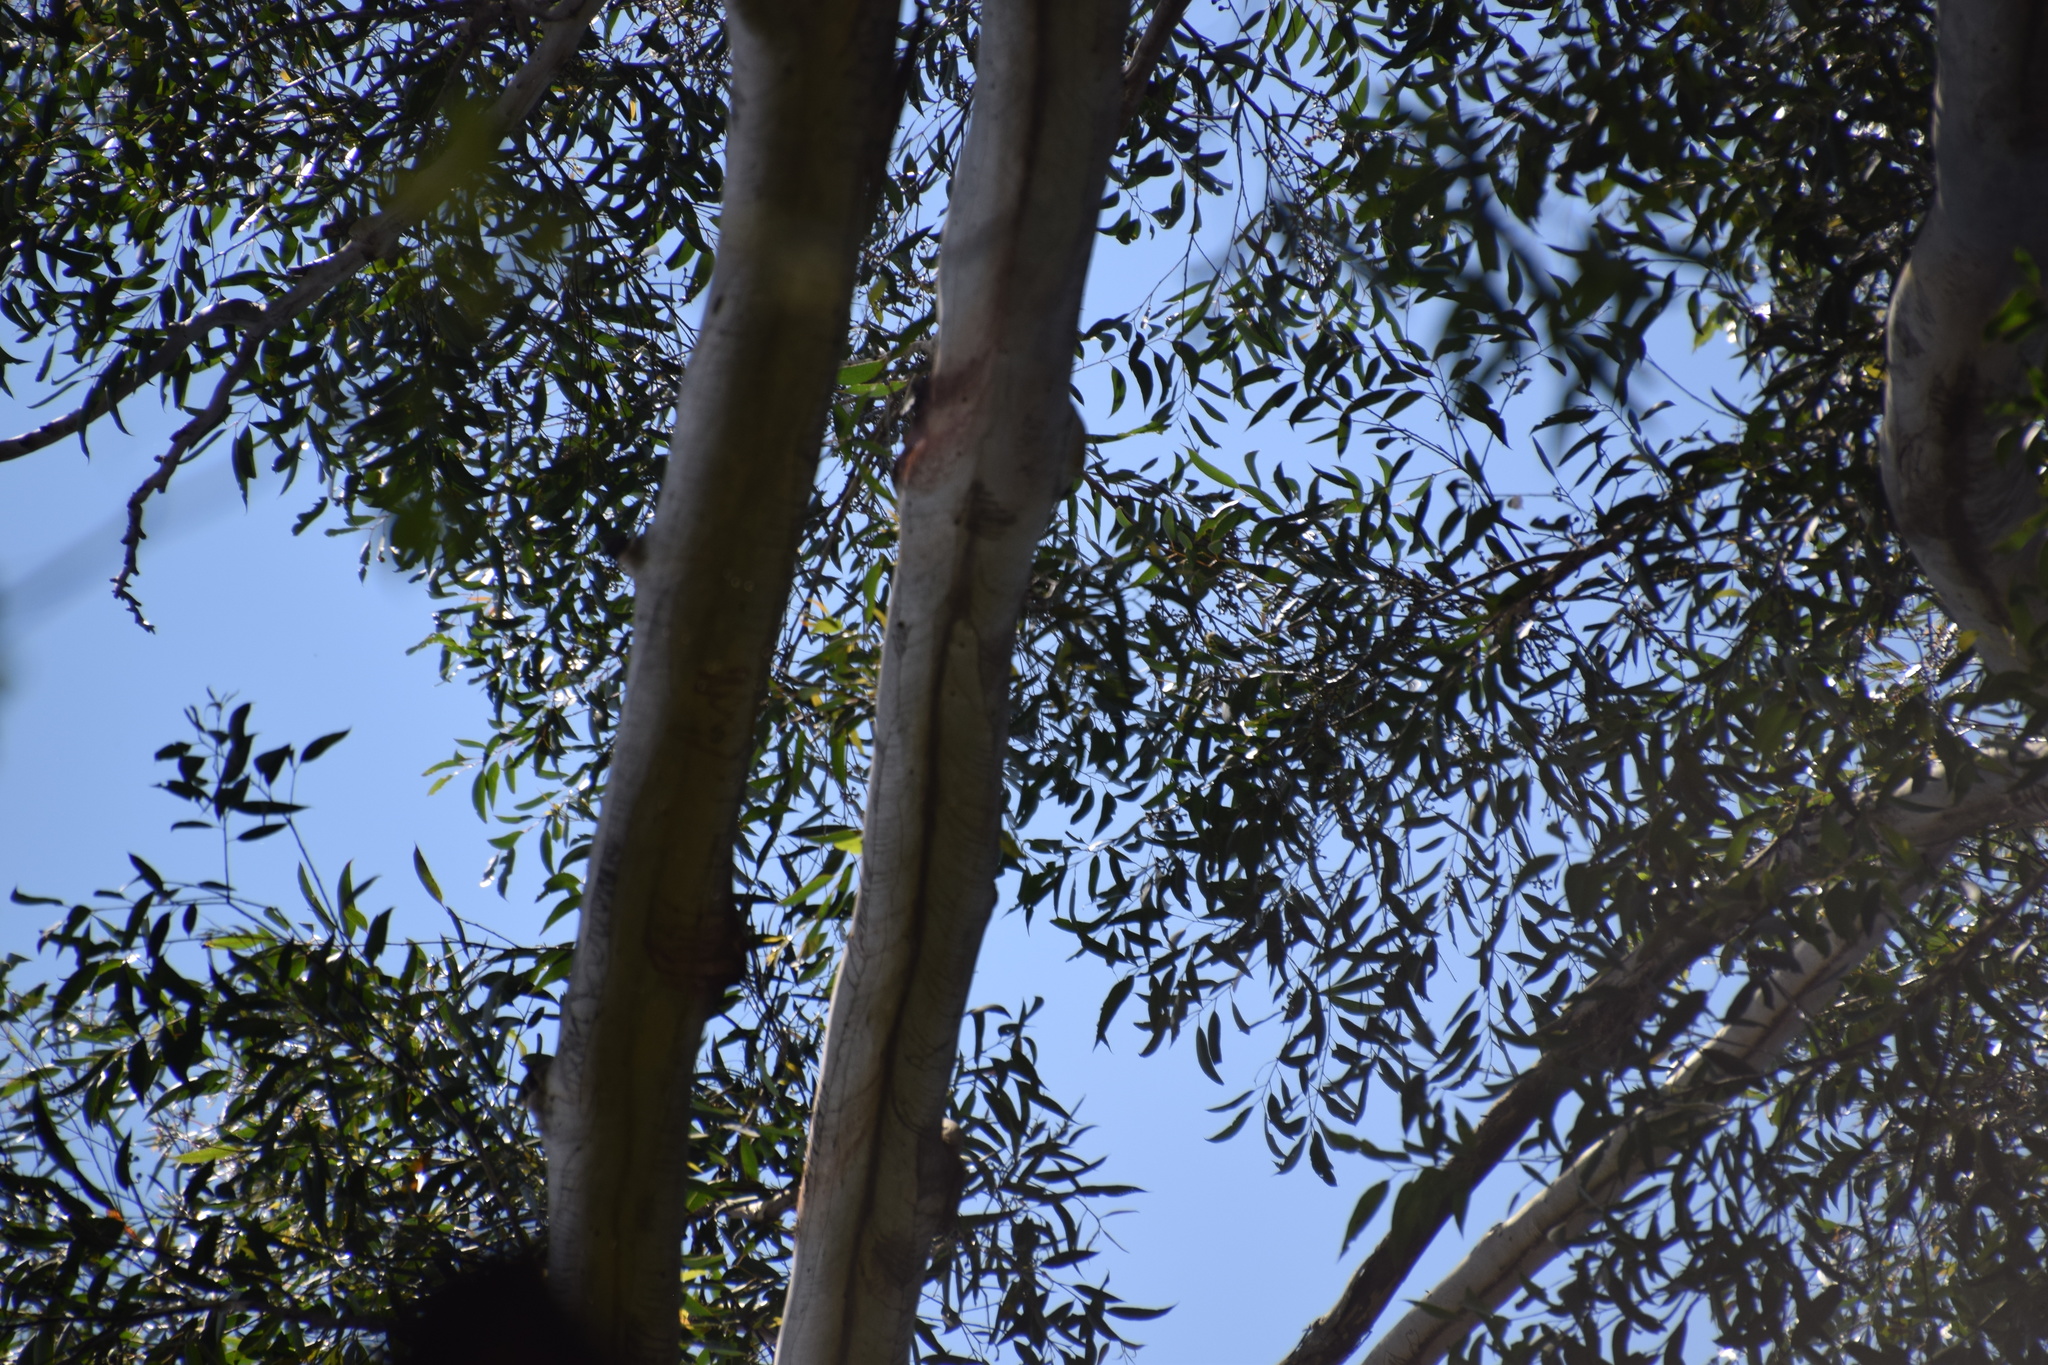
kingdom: Plantae
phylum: Tracheophyta
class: Magnoliopsida
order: Myrtales
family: Myrtaceae
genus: Eucalyptus
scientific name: Eucalyptus pilularis
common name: Blackbutt
